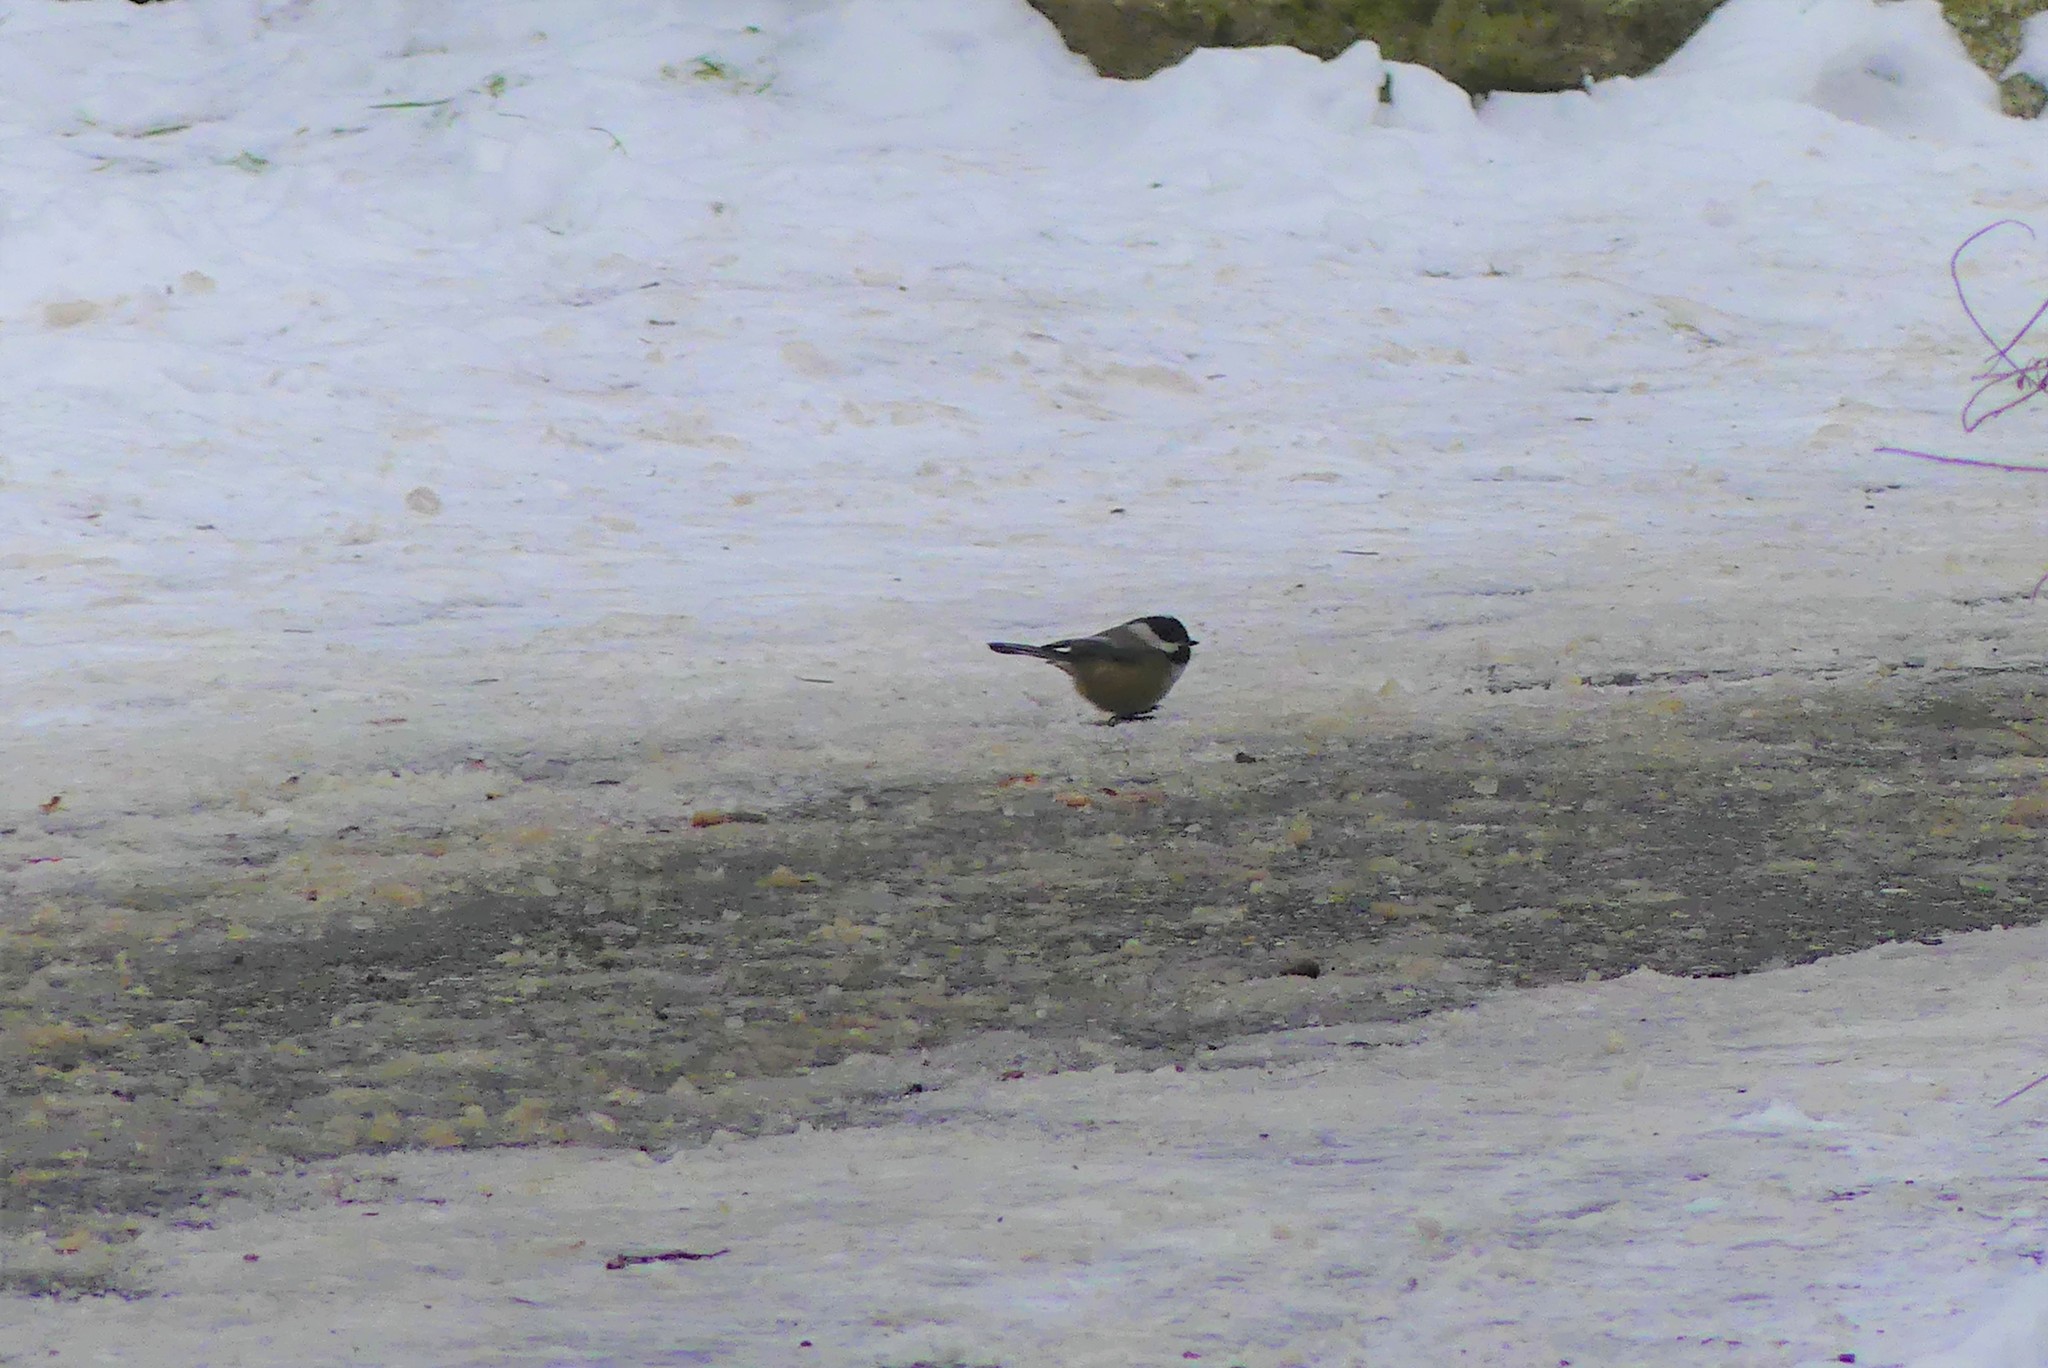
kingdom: Animalia
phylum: Chordata
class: Aves
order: Passeriformes
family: Paridae
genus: Poecile
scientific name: Poecile atricapillus
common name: Black-capped chickadee
